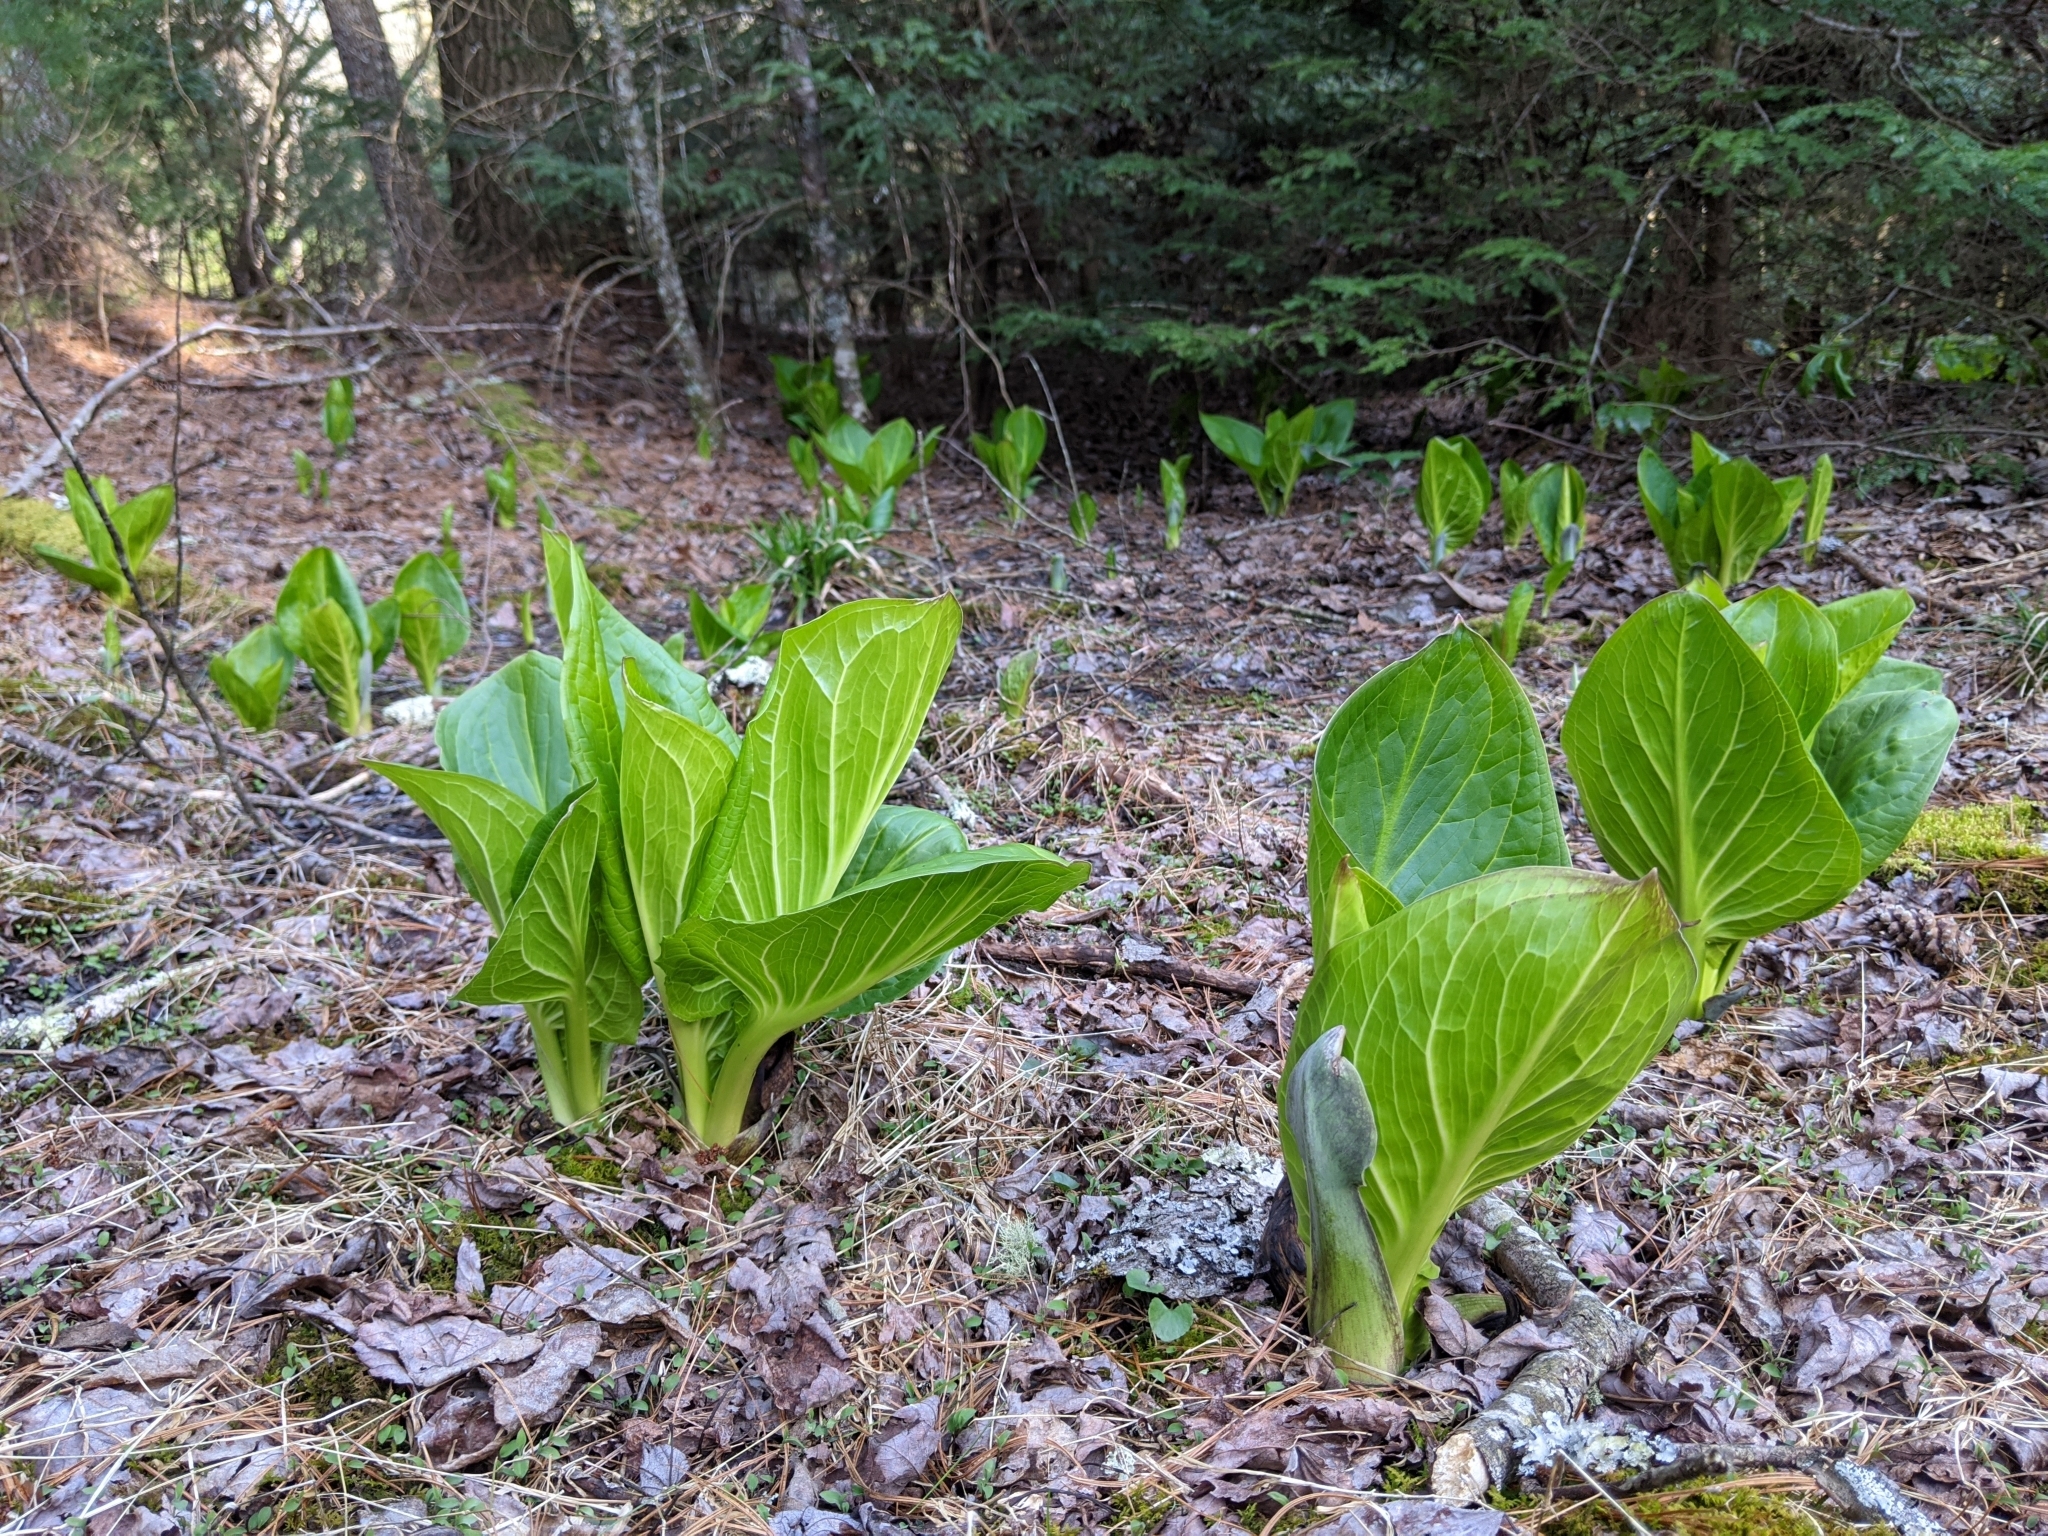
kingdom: Plantae
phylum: Tracheophyta
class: Liliopsida
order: Alismatales
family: Araceae
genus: Symplocarpus
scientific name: Symplocarpus foetidus
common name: Eastern skunk cabbage
